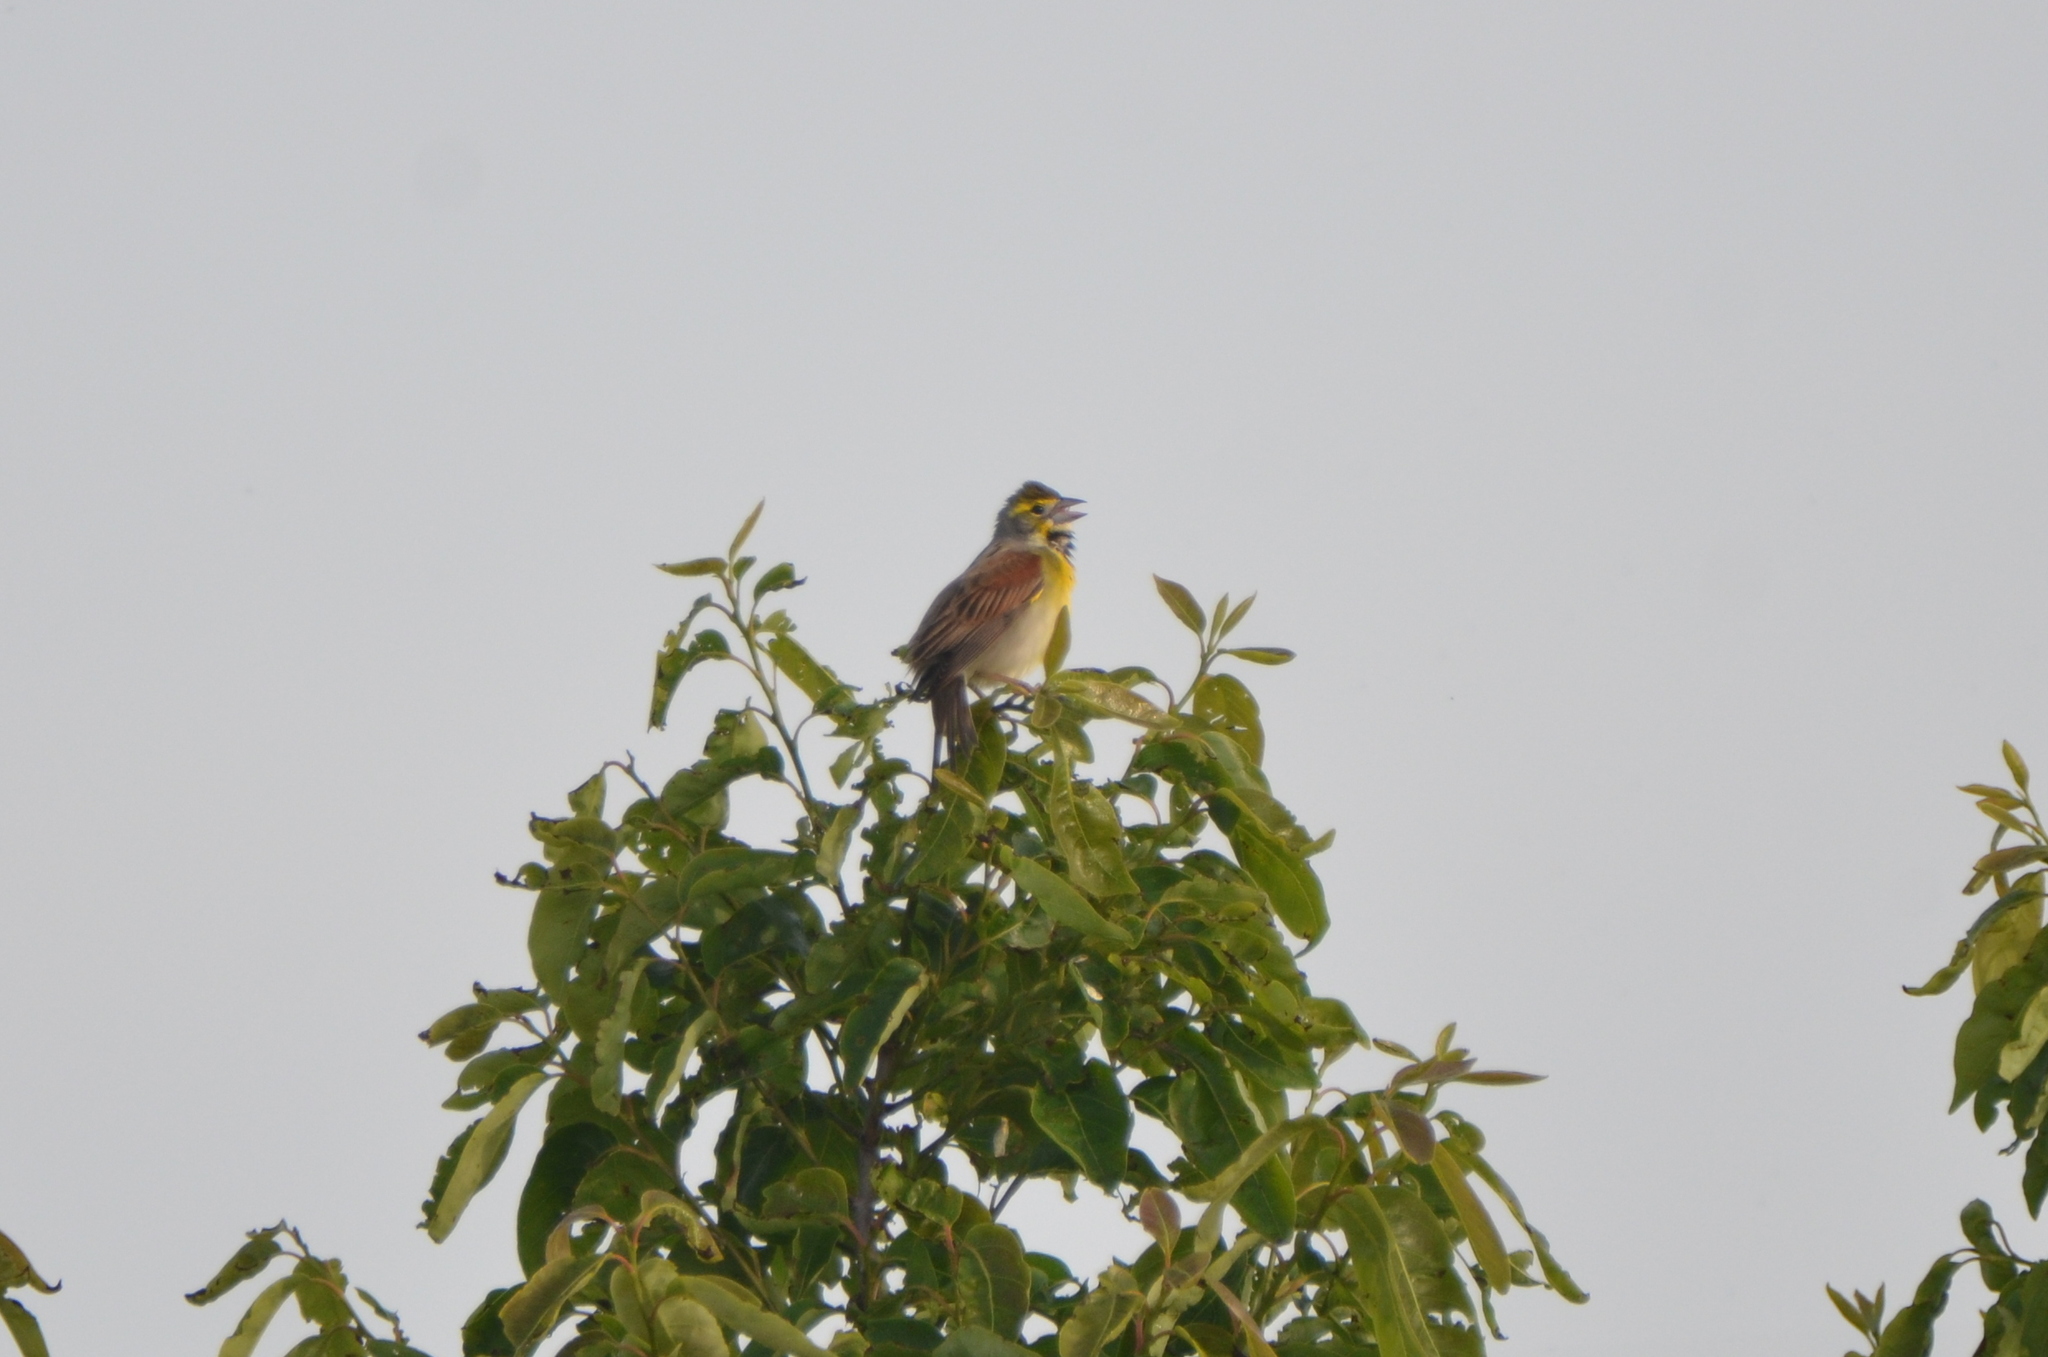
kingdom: Animalia
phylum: Chordata
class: Aves
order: Passeriformes
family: Cardinalidae
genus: Spiza
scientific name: Spiza americana
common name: Dickcissel
